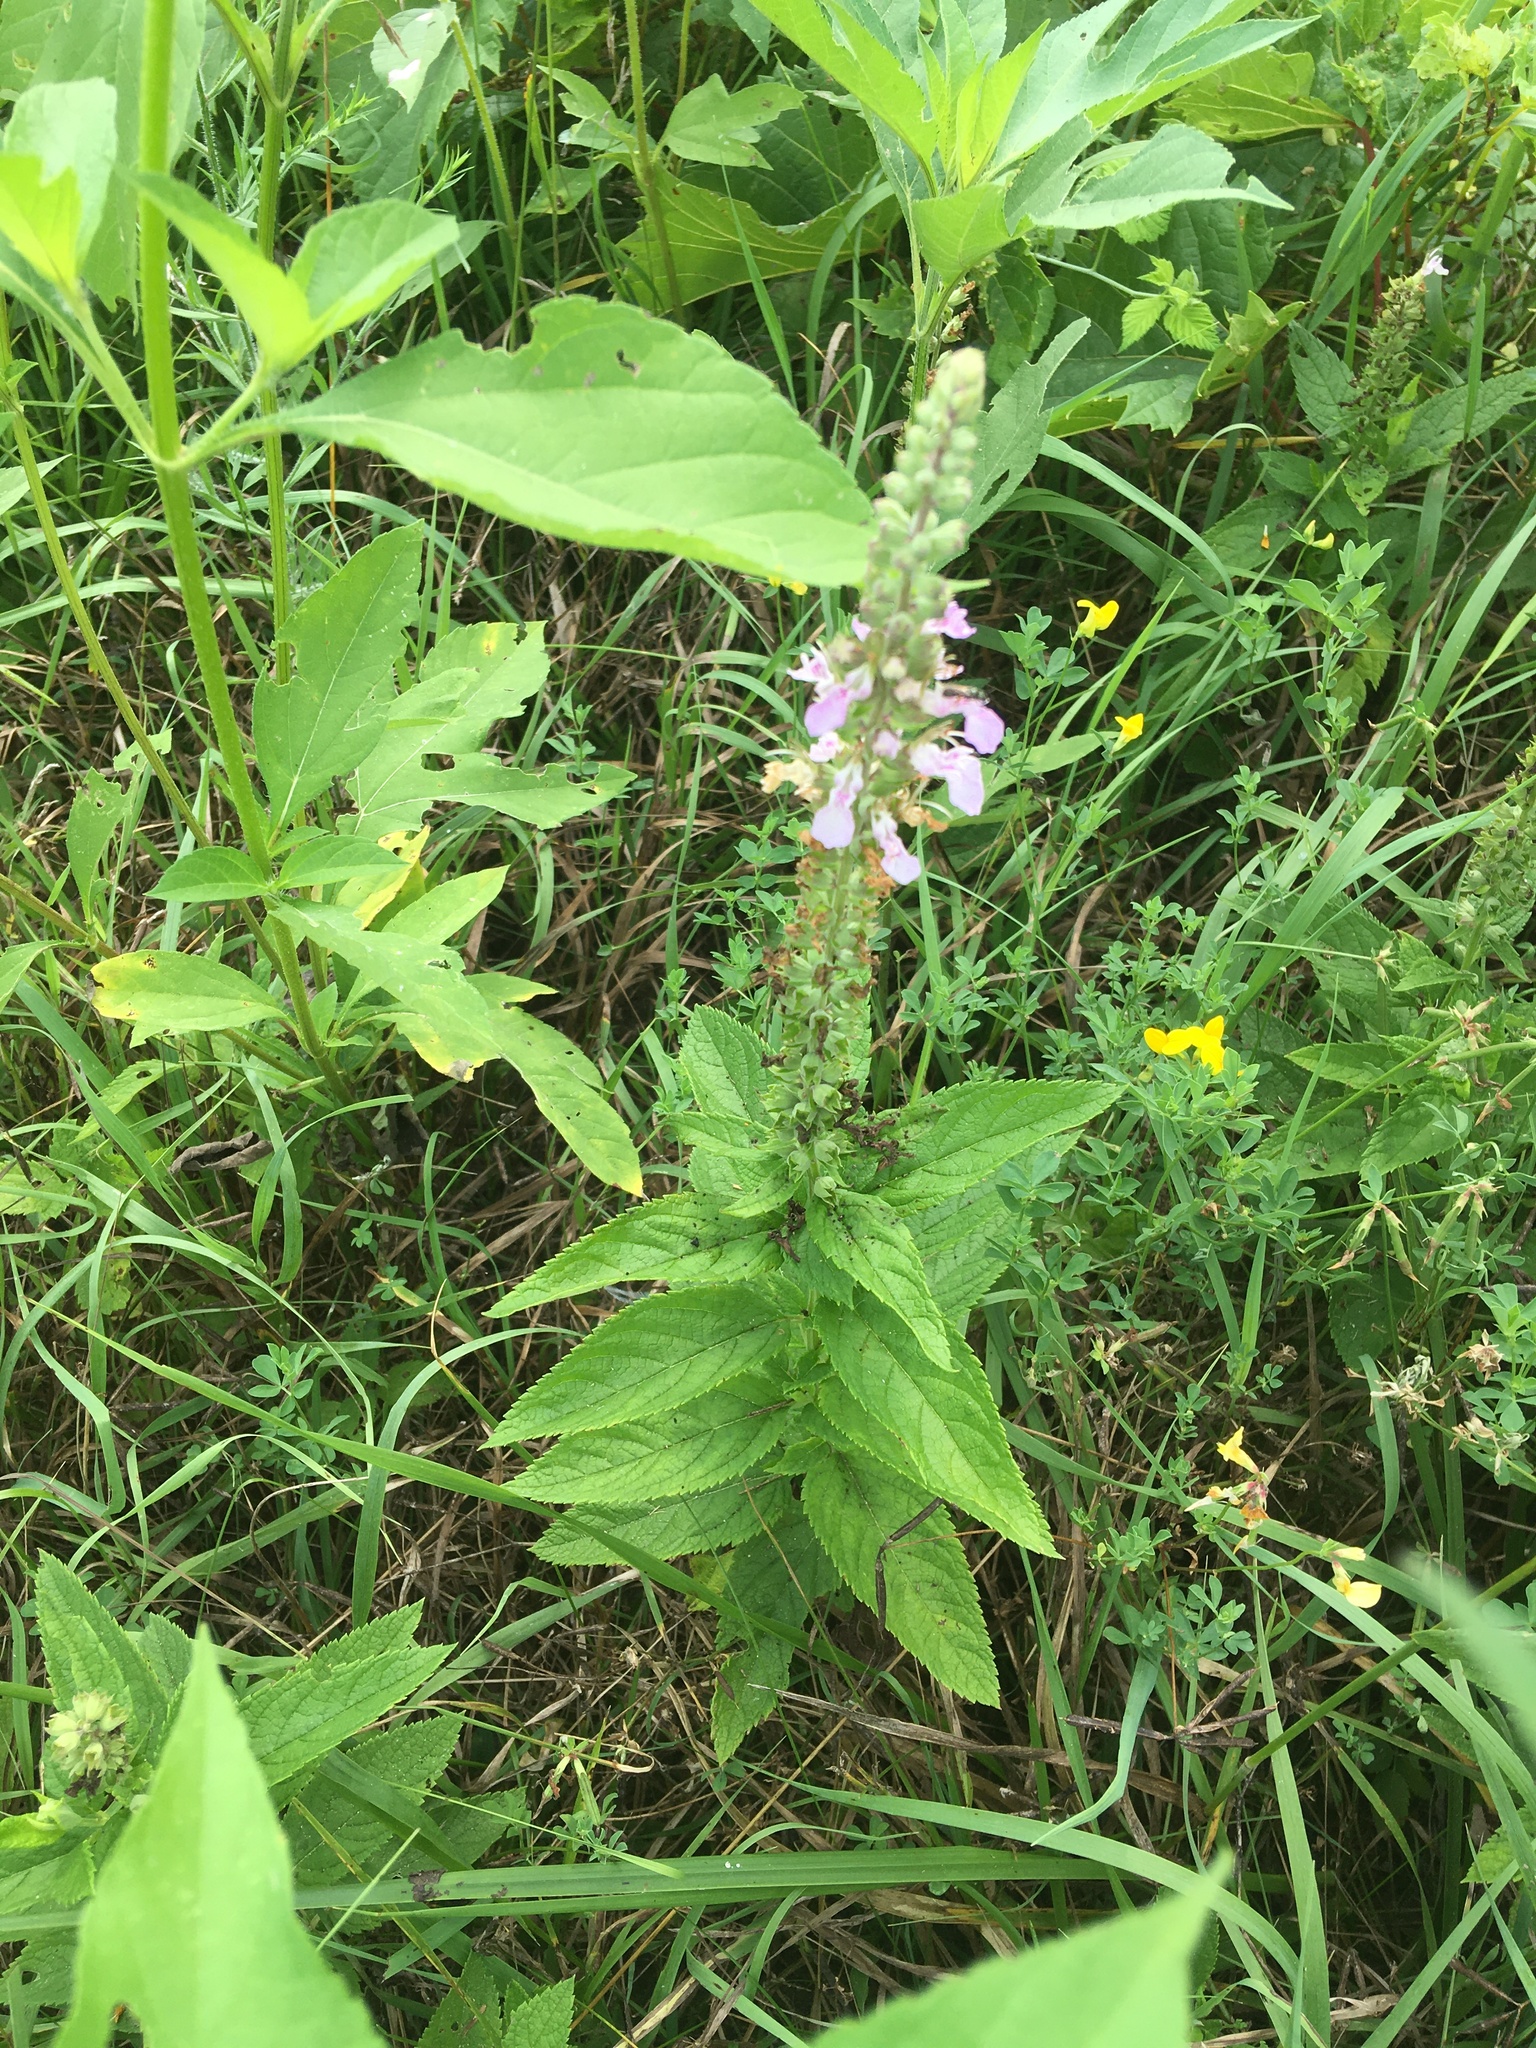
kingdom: Plantae
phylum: Tracheophyta
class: Magnoliopsida
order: Lamiales
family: Lamiaceae
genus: Teucrium
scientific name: Teucrium canadense
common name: American germander
